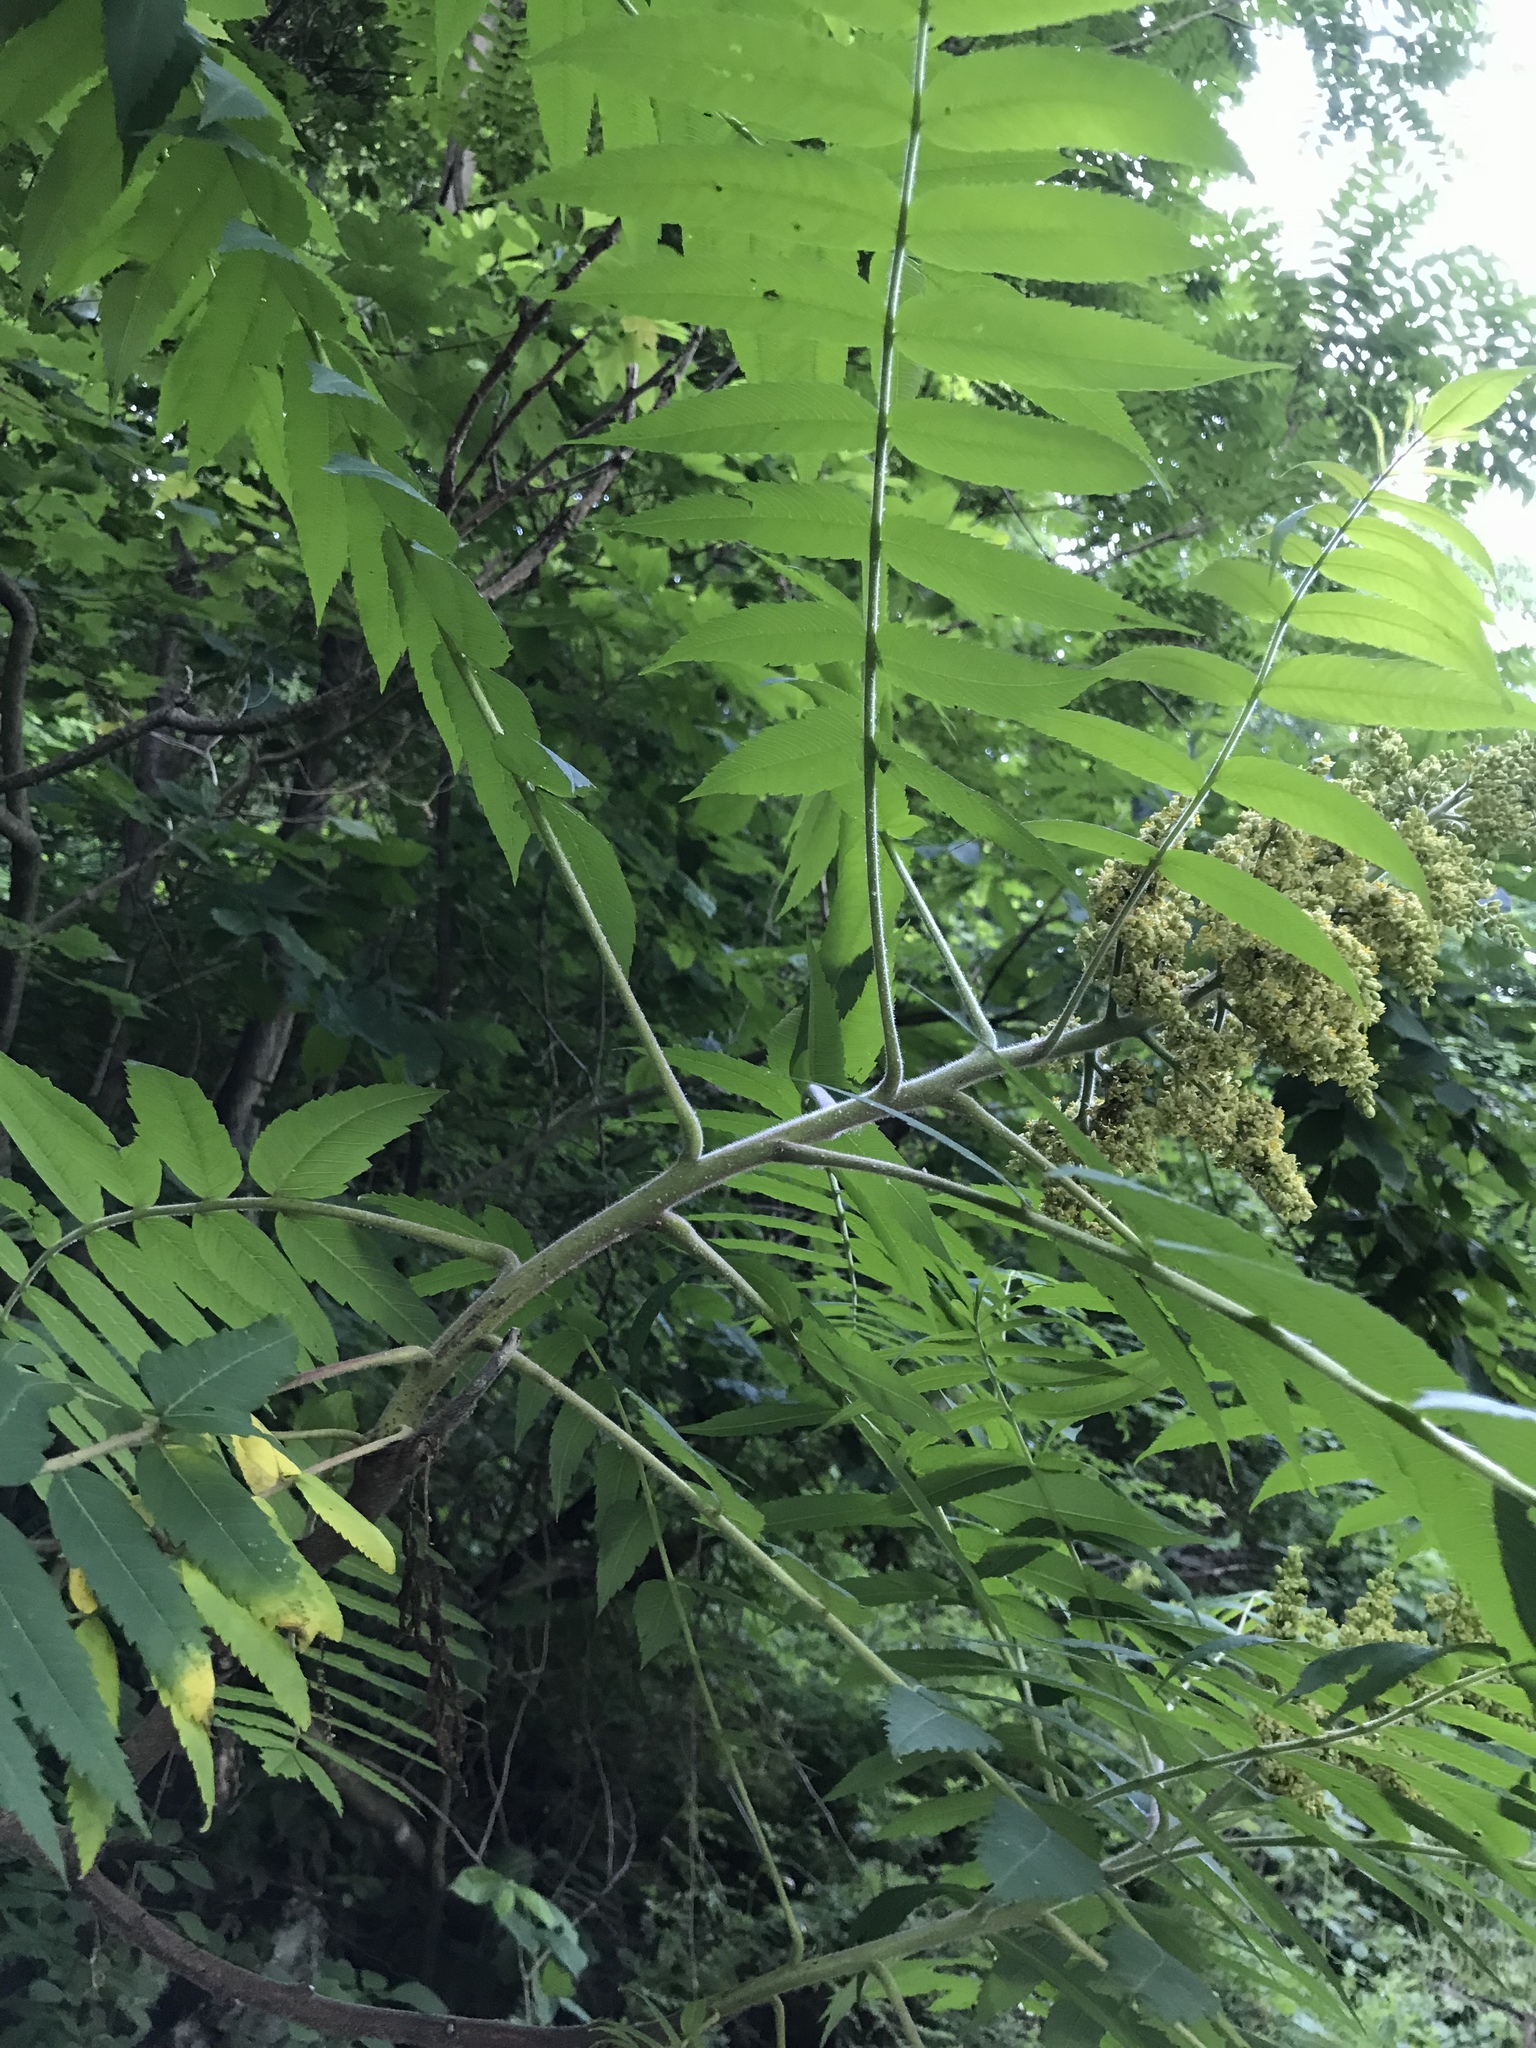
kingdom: Plantae
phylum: Tracheophyta
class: Magnoliopsida
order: Sapindales
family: Anacardiaceae
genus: Rhus
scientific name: Rhus typhina
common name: Staghorn sumac
